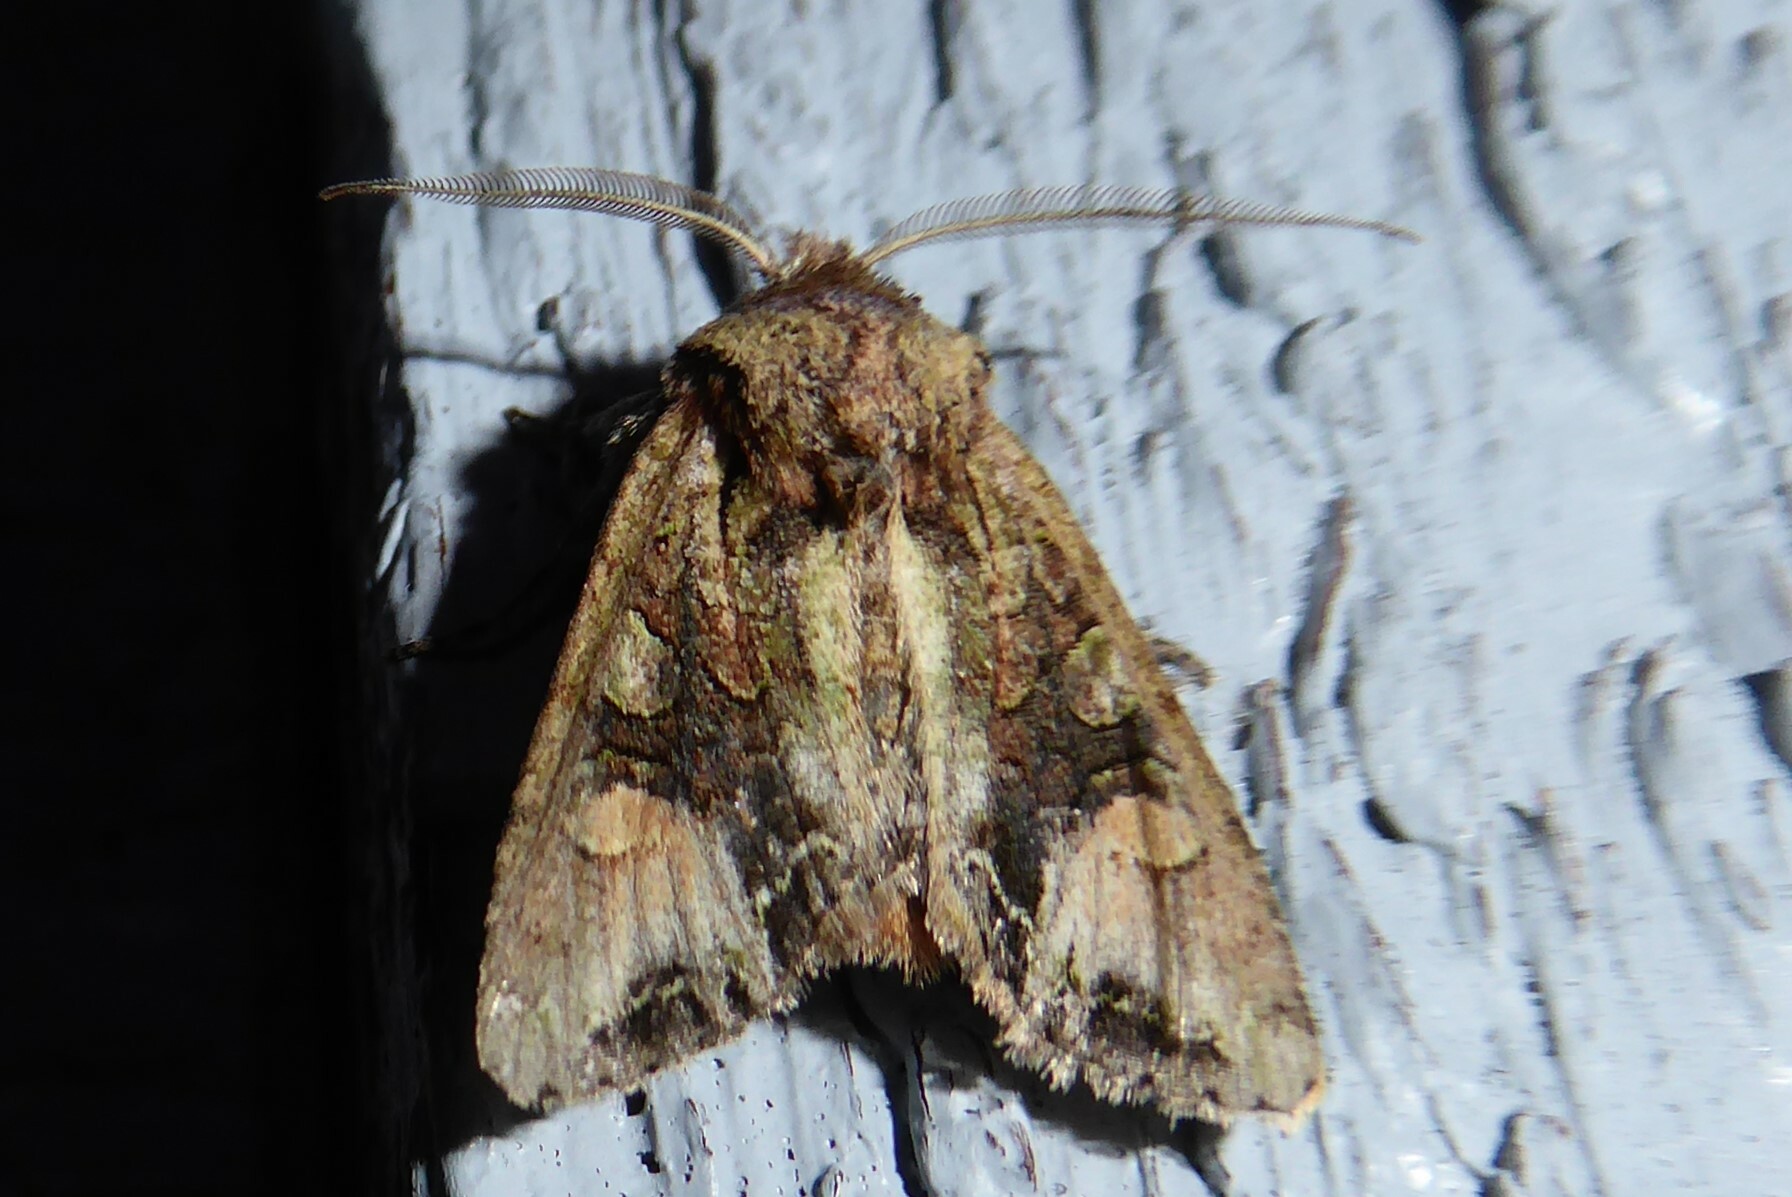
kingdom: Animalia
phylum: Arthropoda
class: Insecta
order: Lepidoptera
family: Noctuidae
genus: Ichneutica
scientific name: Ichneutica
